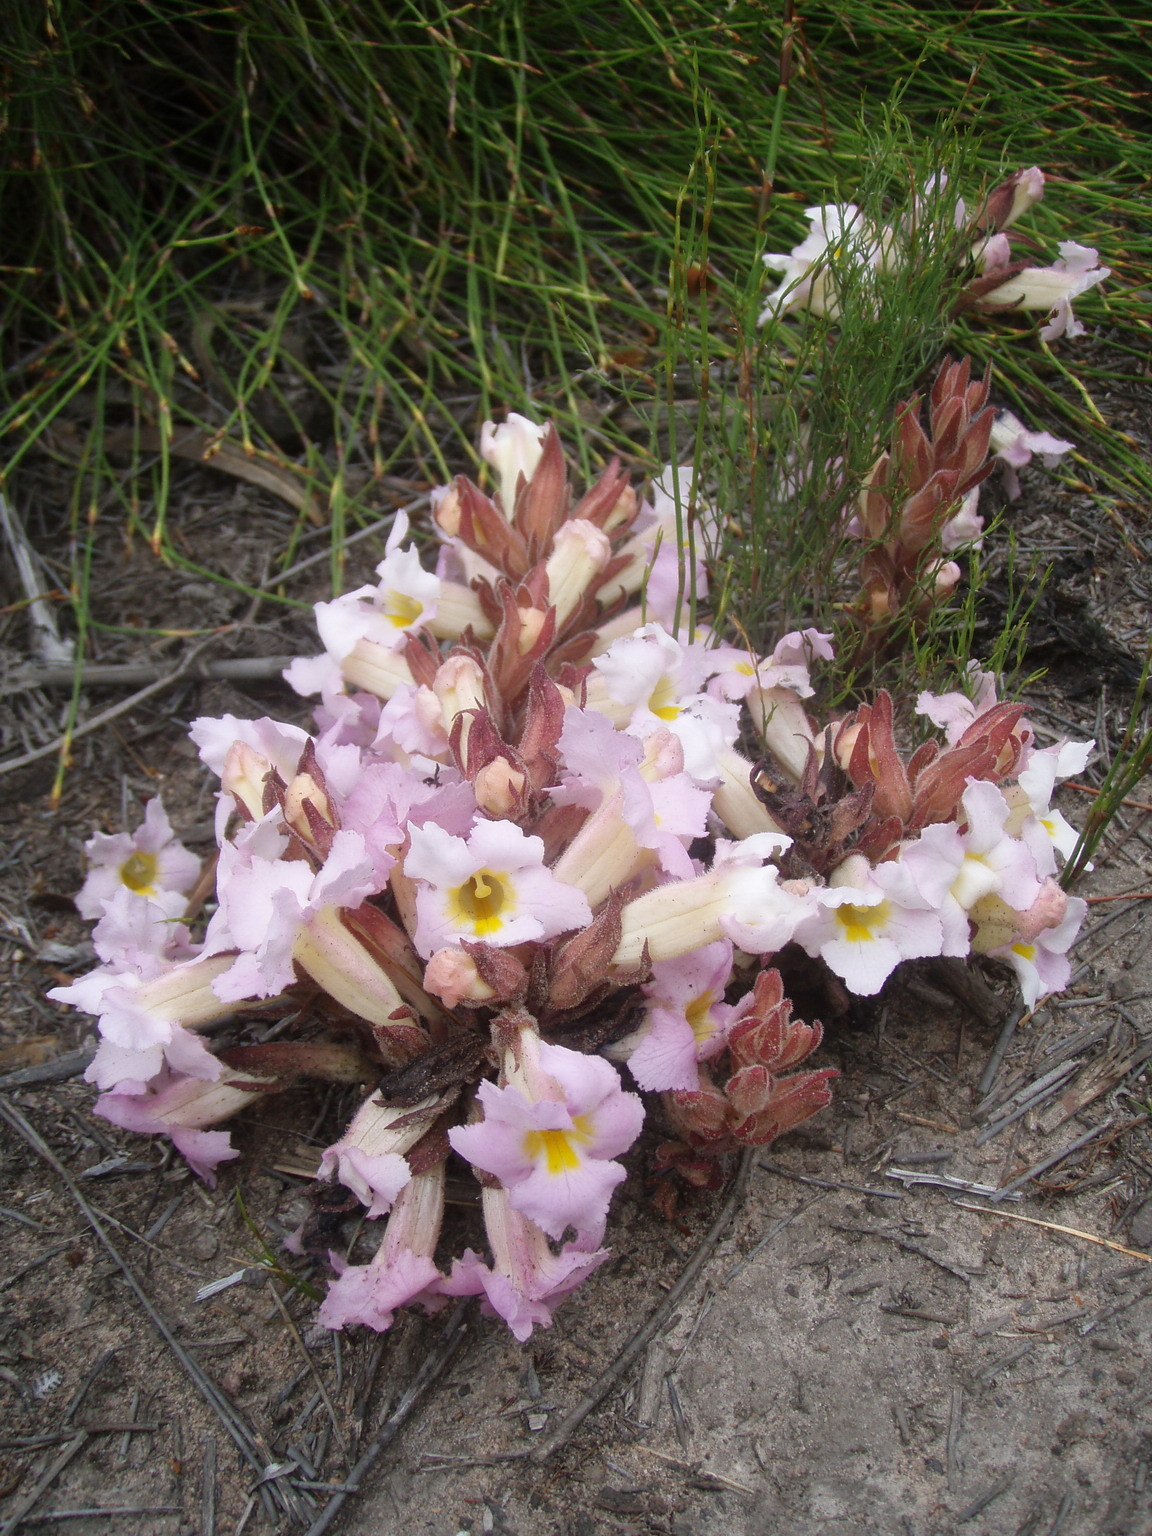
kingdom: Plantae
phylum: Tracheophyta
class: Magnoliopsida
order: Lamiales
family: Orobanchaceae
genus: Harveya
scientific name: Harveya purpurea
